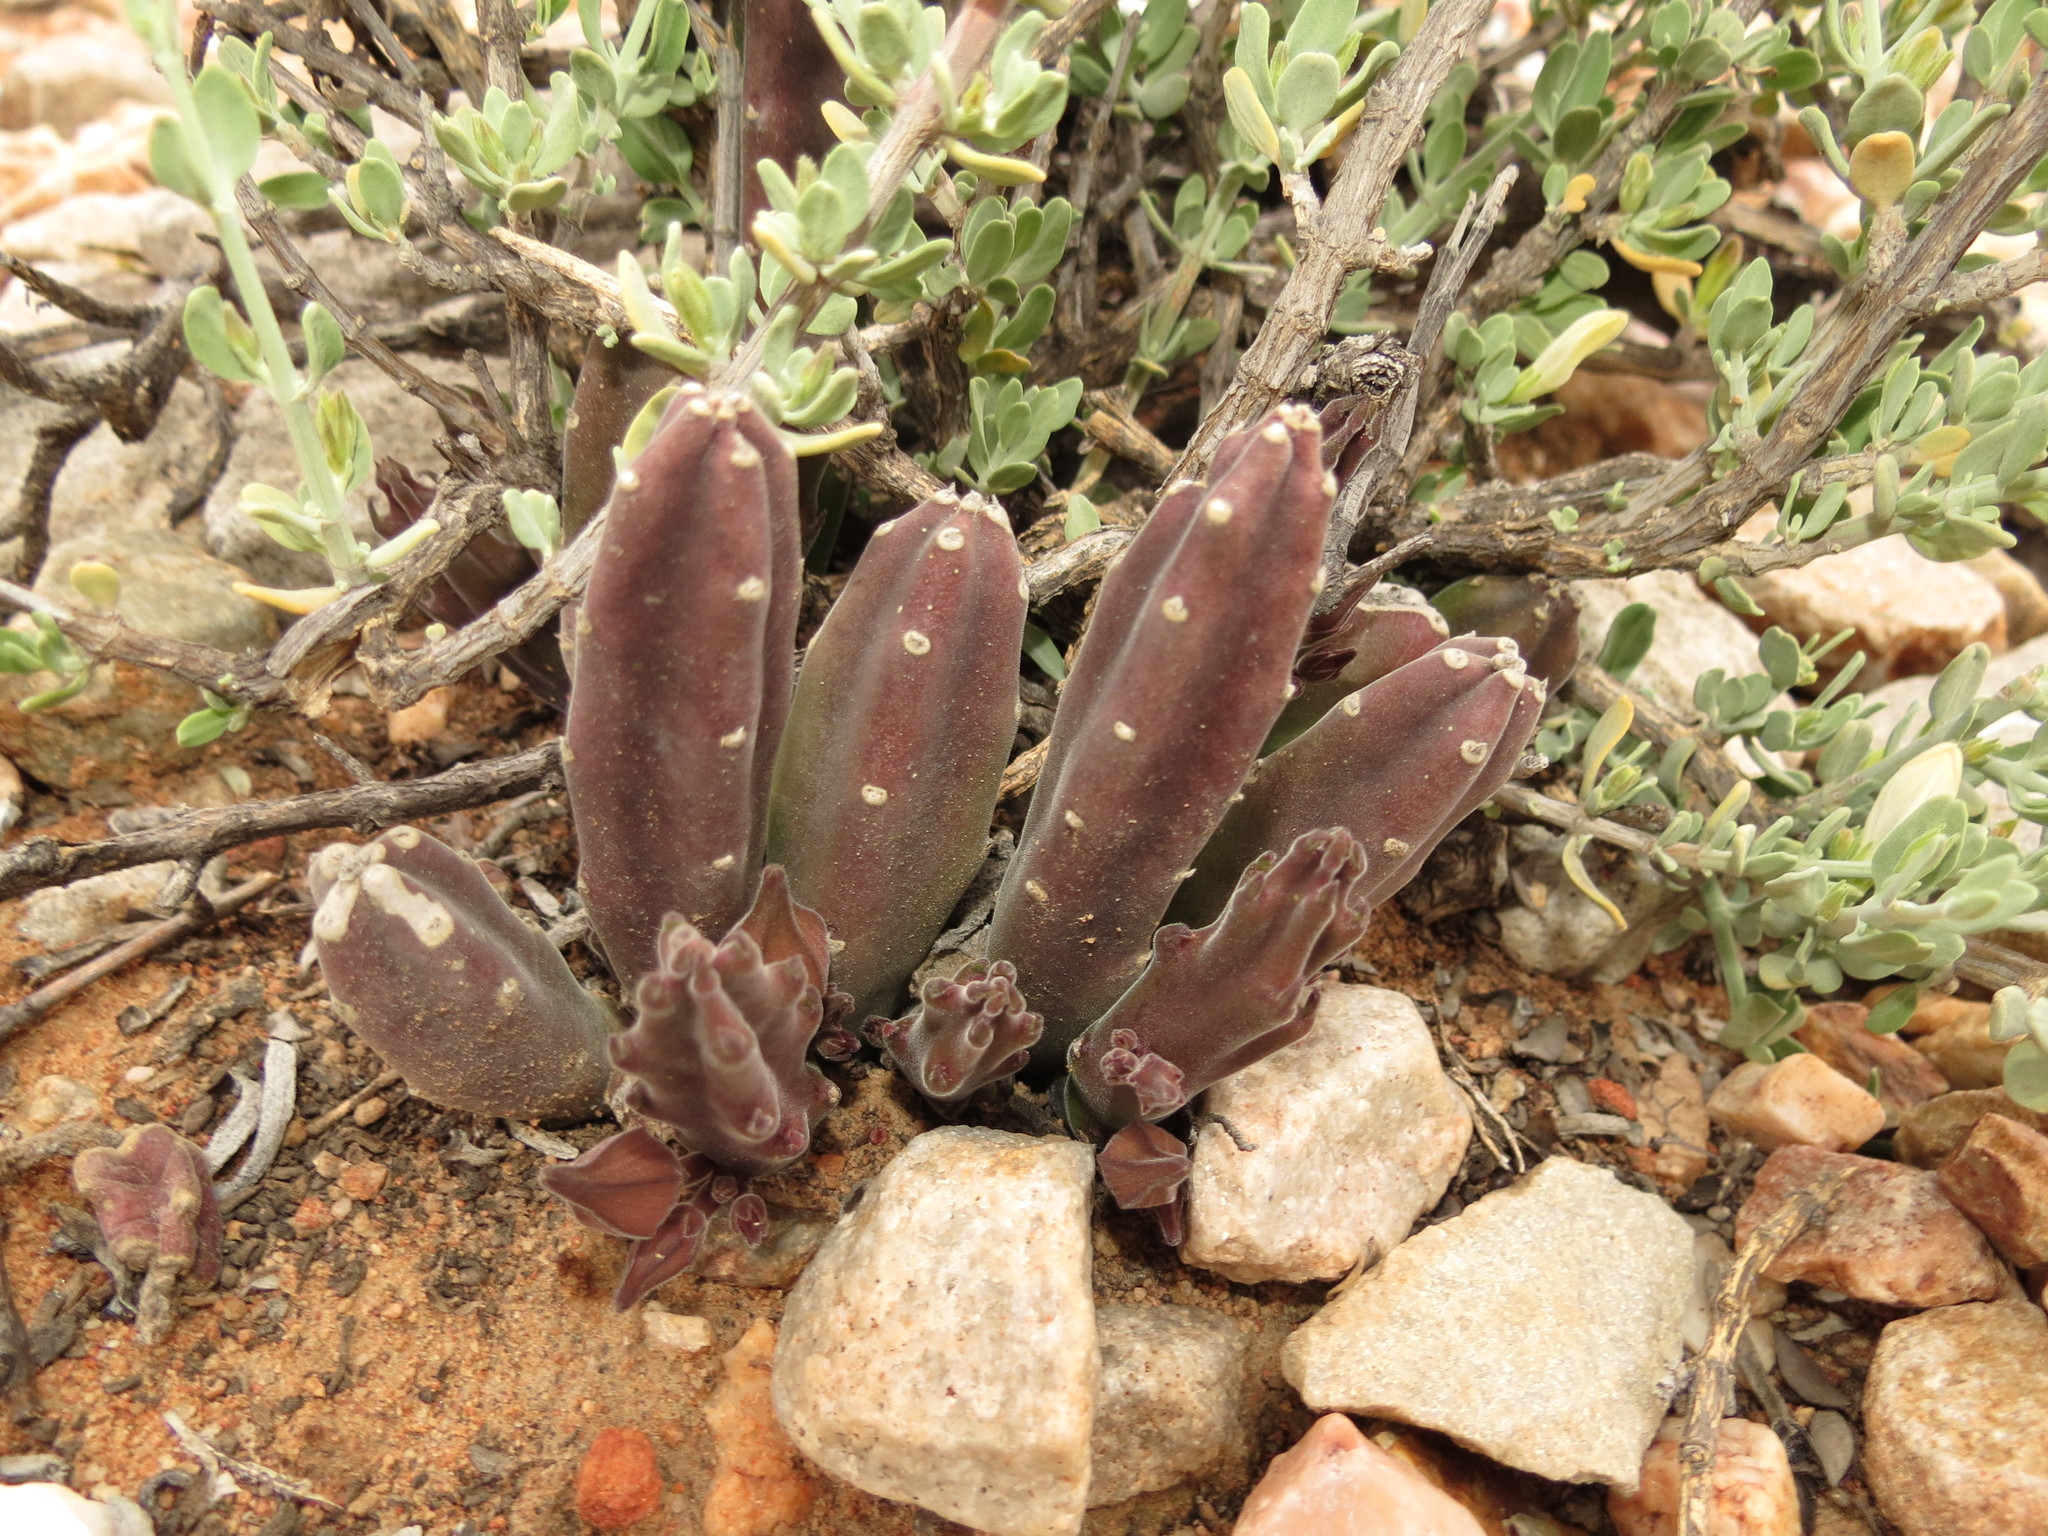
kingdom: Plantae
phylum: Tracheophyta
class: Magnoliopsida
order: Gentianales
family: Apocynaceae
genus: Ceropegia
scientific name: Ceropegia rufa
